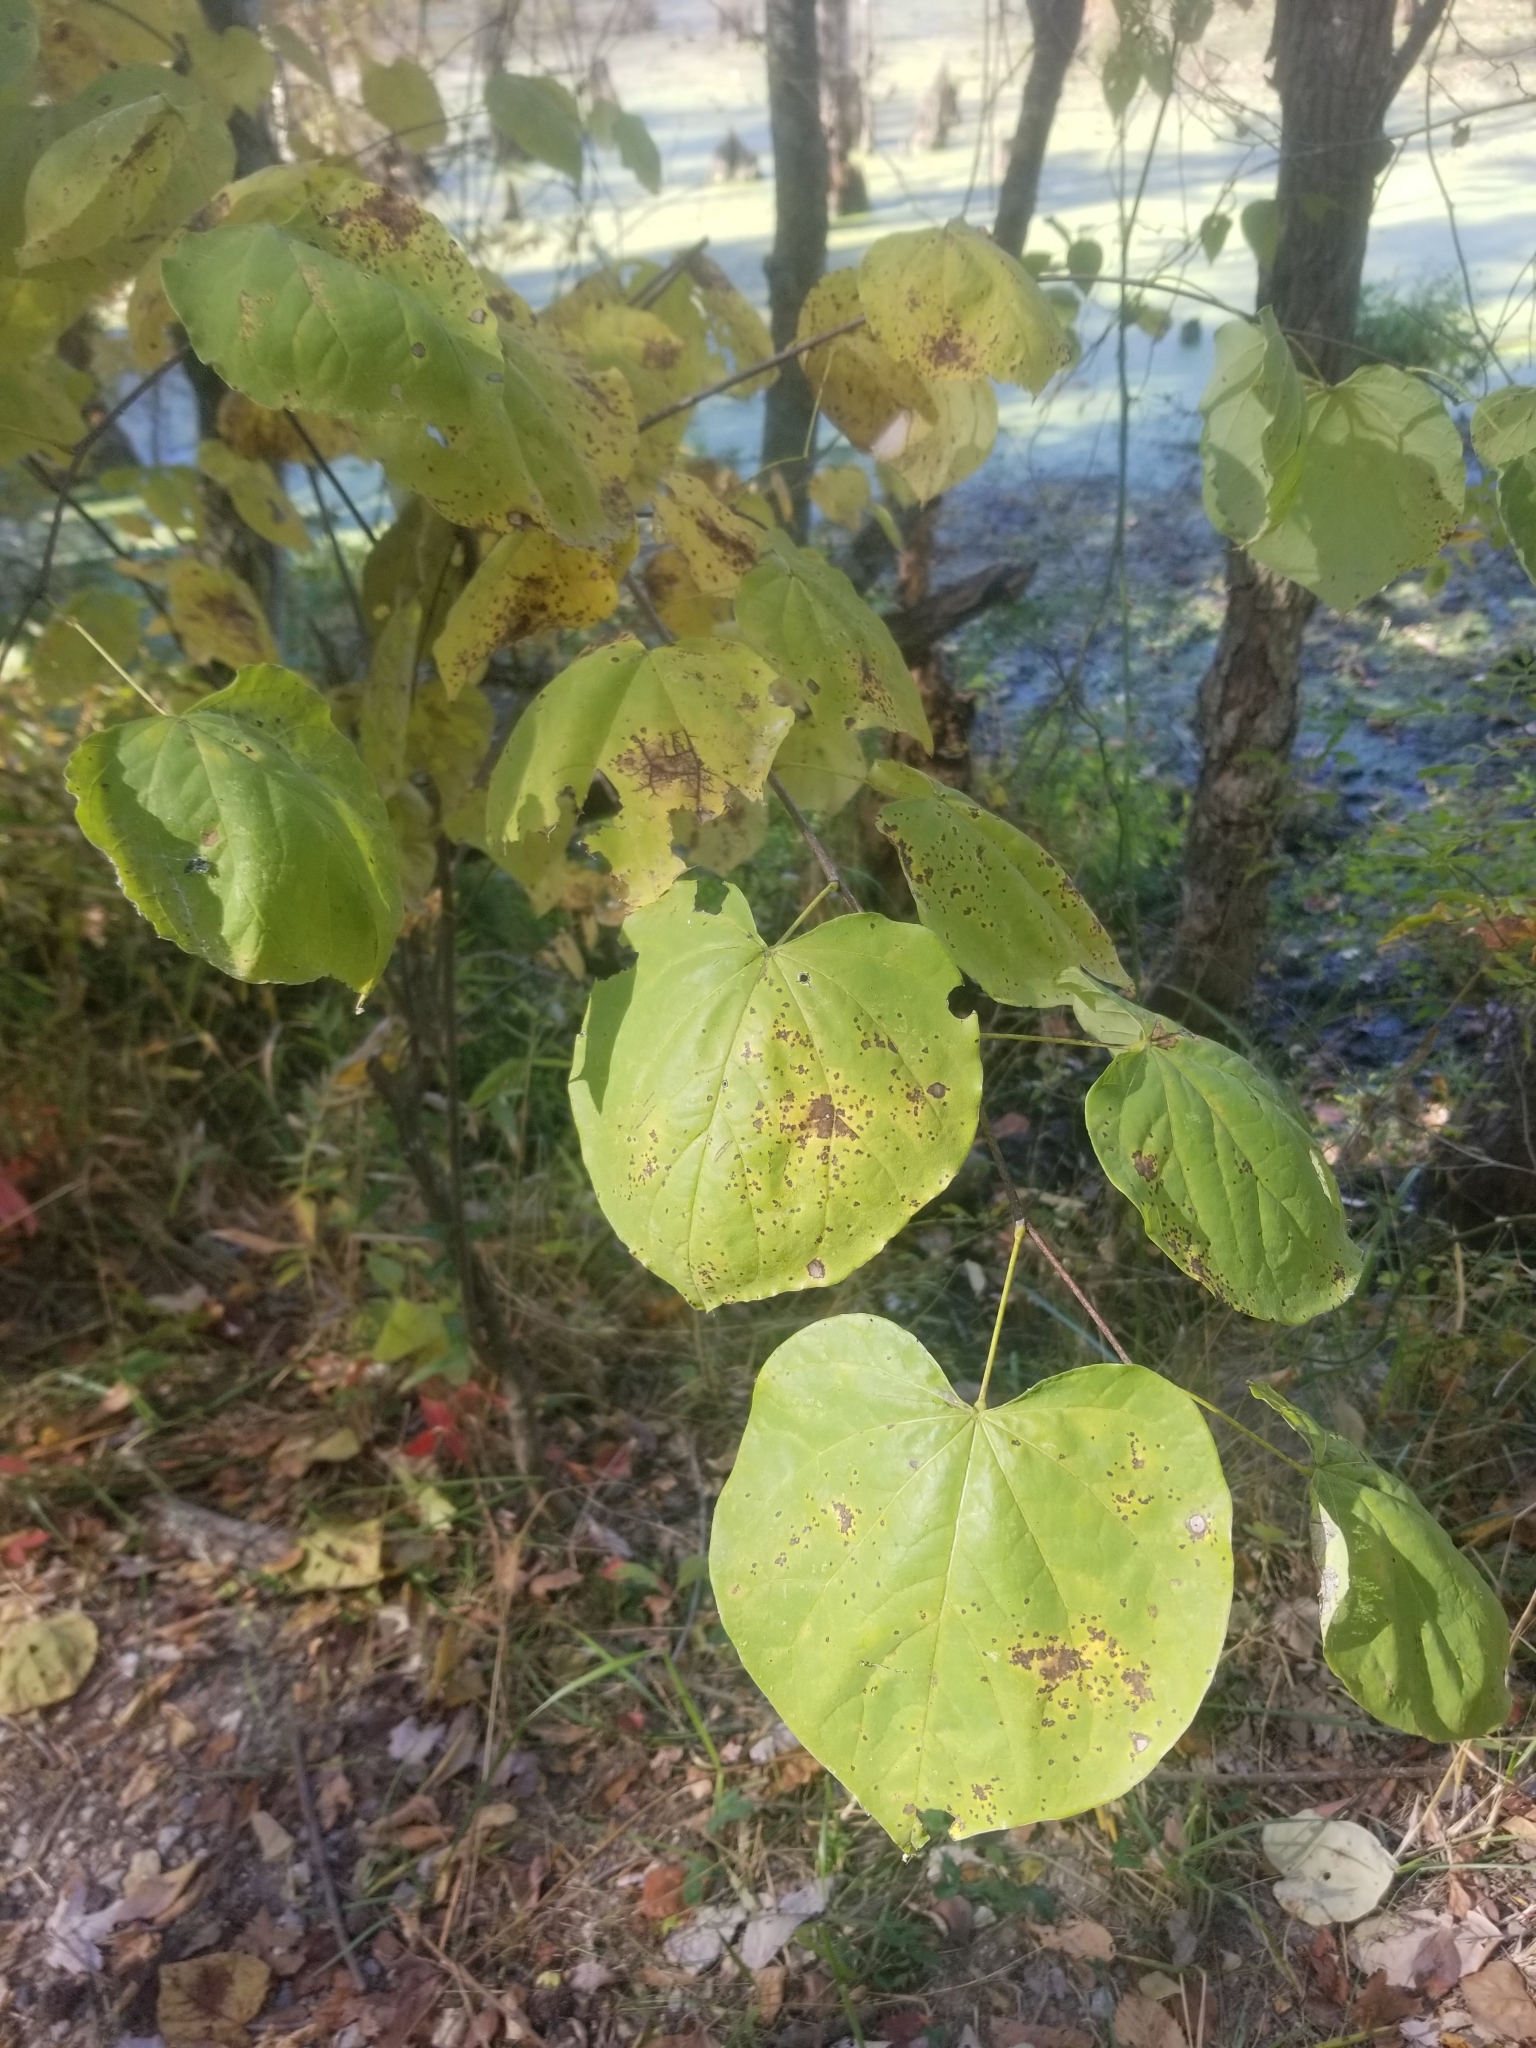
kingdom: Plantae
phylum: Tracheophyta
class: Magnoliopsida
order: Fabales
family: Fabaceae
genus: Cercis
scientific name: Cercis canadensis
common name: Eastern redbud
